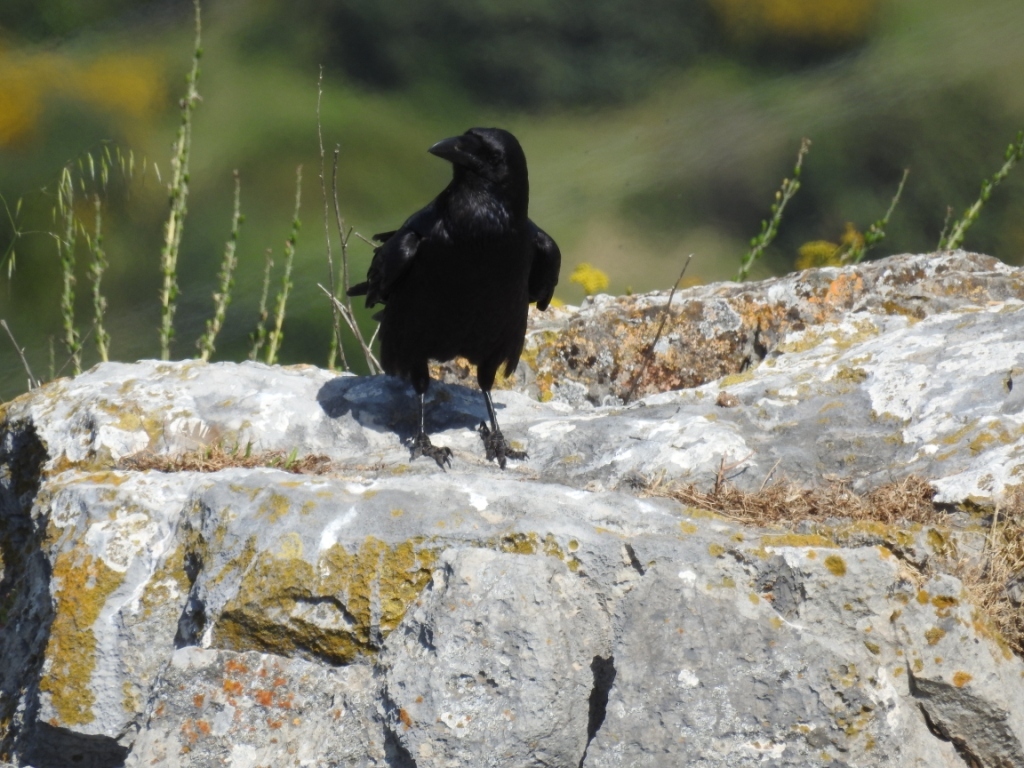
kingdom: Animalia
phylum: Chordata
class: Aves
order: Passeriformes
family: Corvidae
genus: Corvus
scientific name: Corvus corax
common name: Common raven
